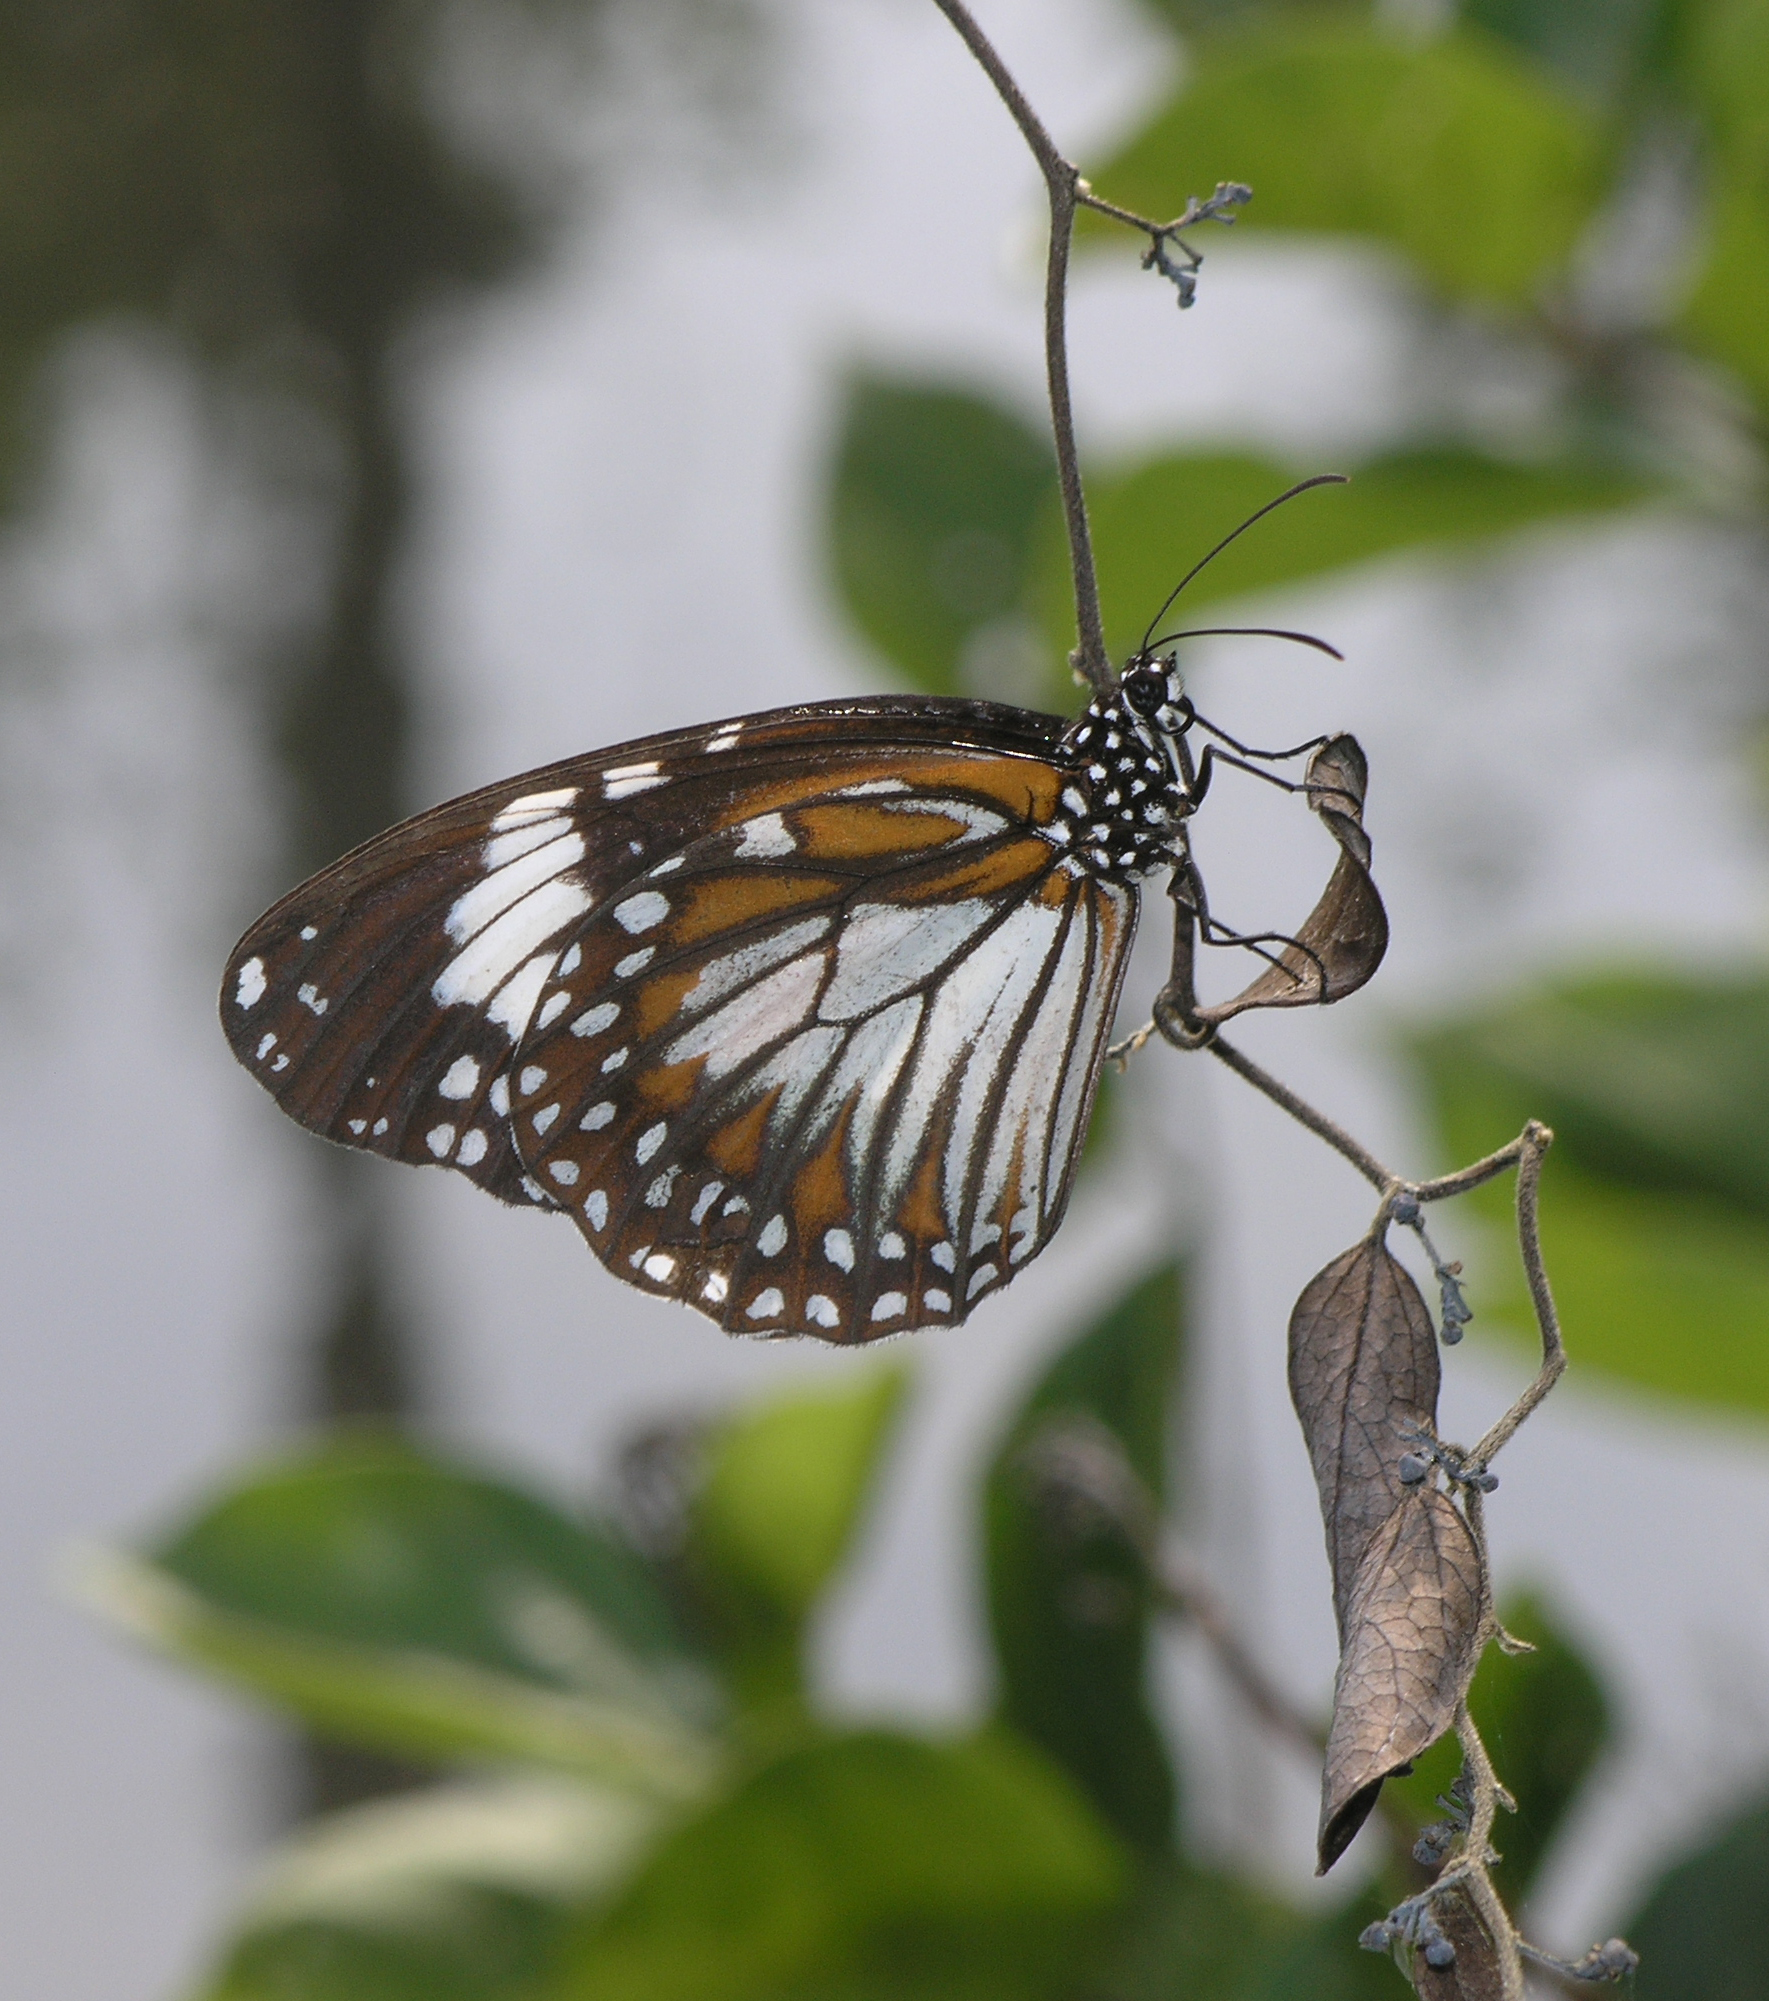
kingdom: Animalia
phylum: Arthropoda
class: Insecta
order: Lepidoptera
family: Nymphalidae
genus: Danaus
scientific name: Danaus affinis
